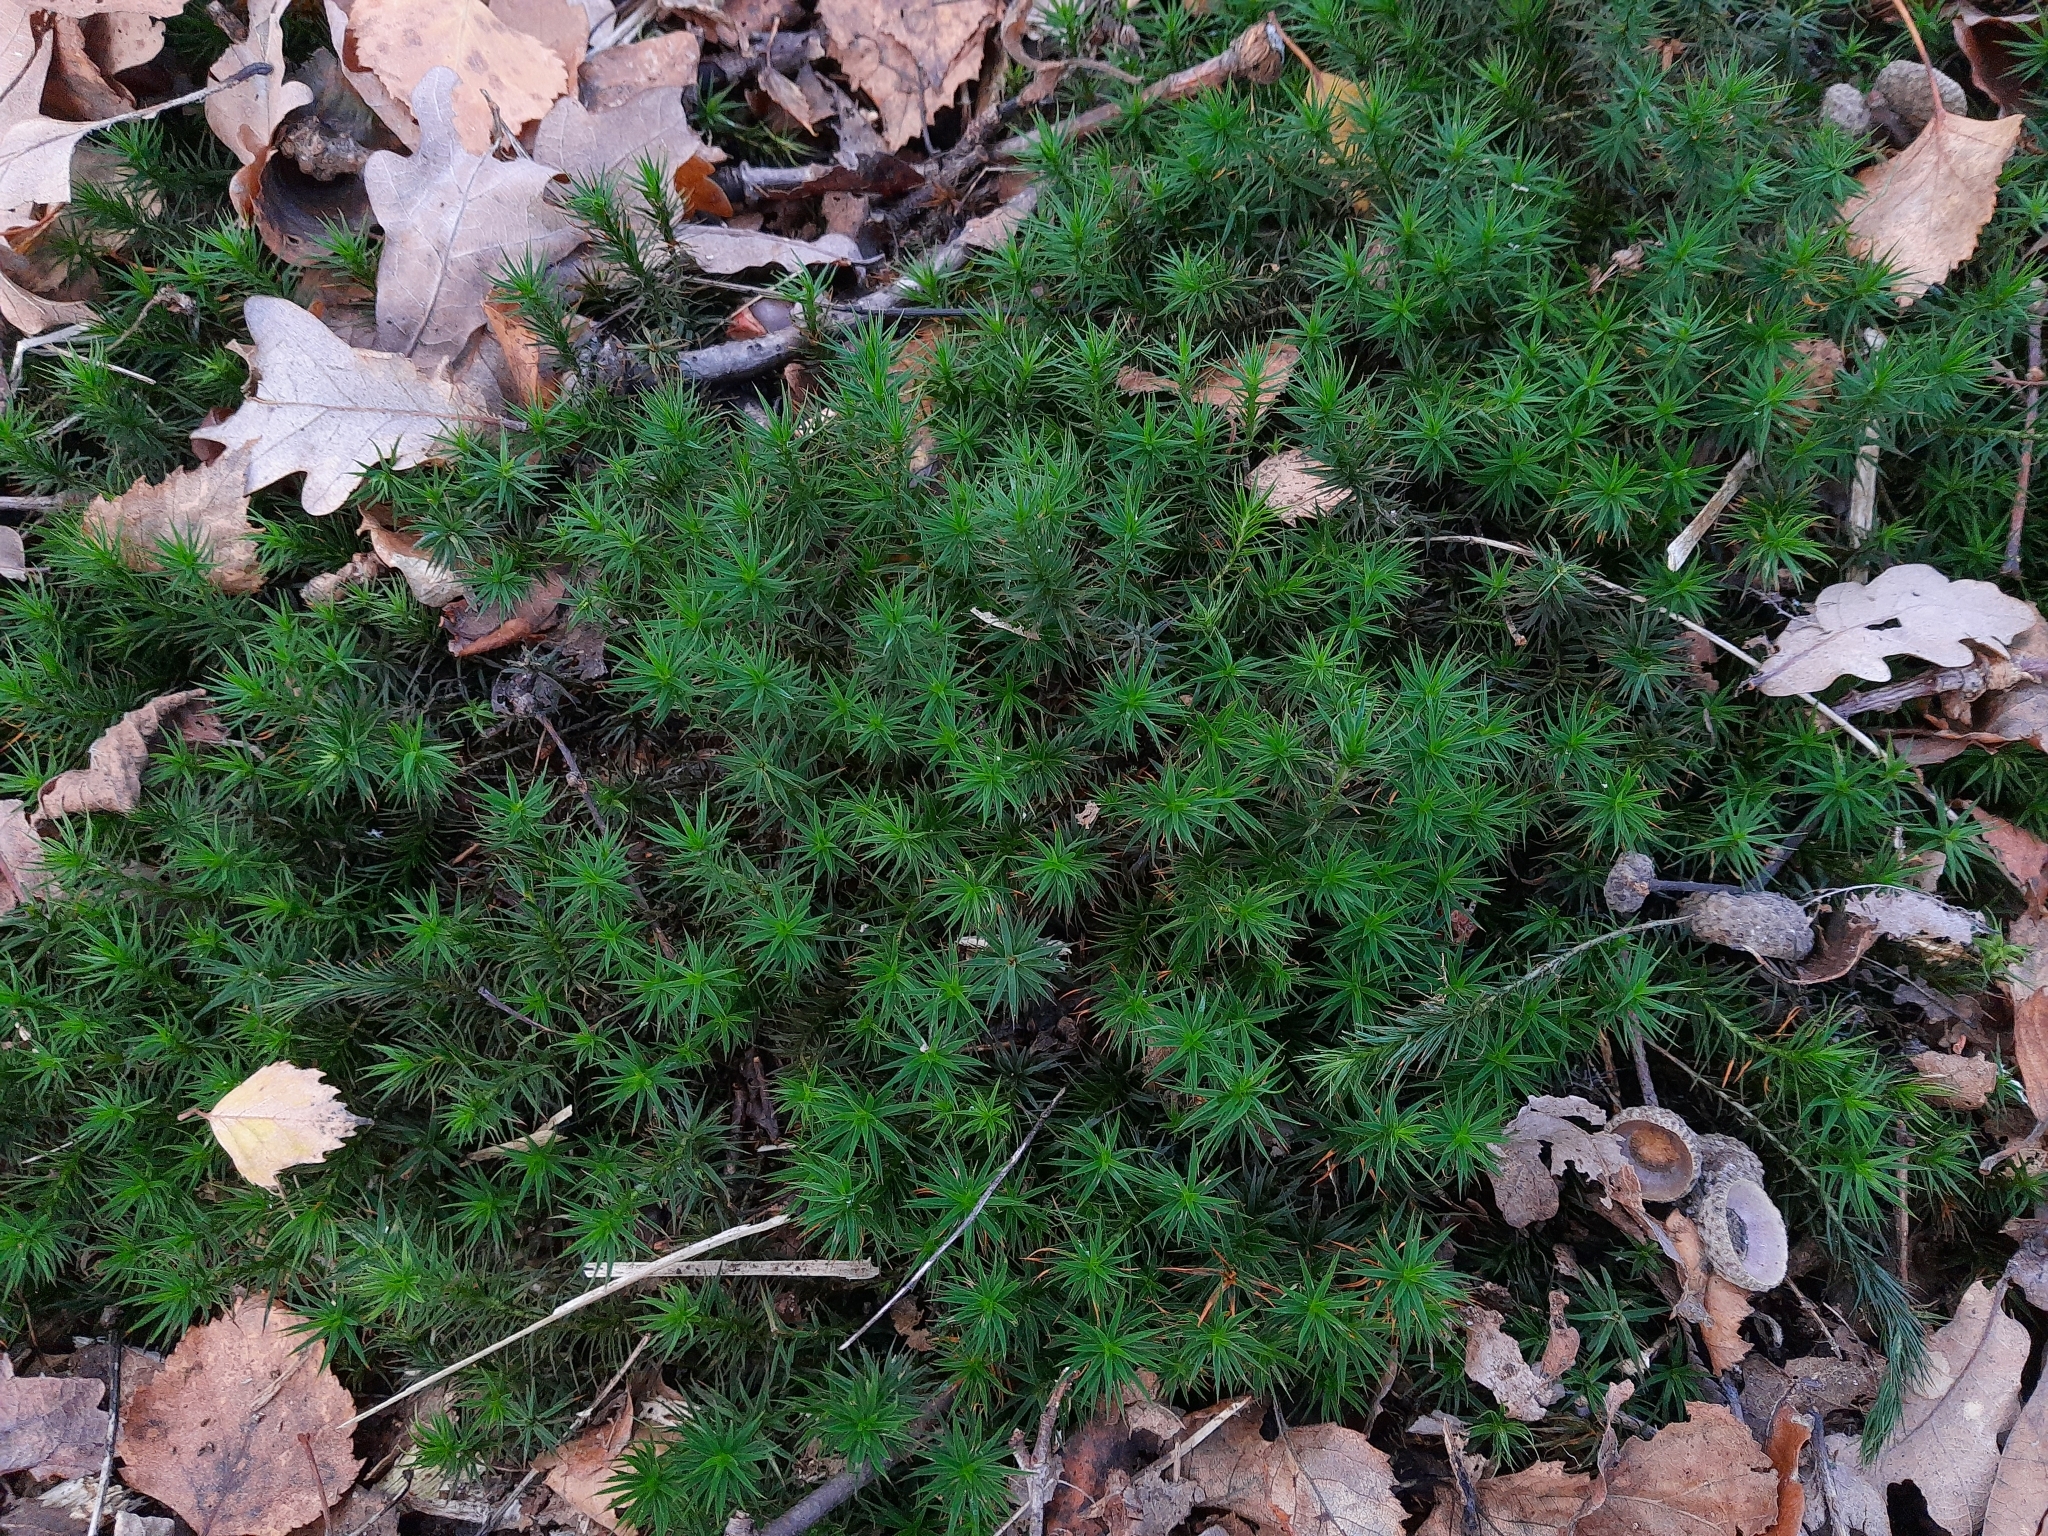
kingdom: Plantae
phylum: Bryophyta
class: Polytrichopsida
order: Polytrichales
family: Polytrichaceae
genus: Polytrichum
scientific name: Polytrichum formosum
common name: Bank haircap moss
